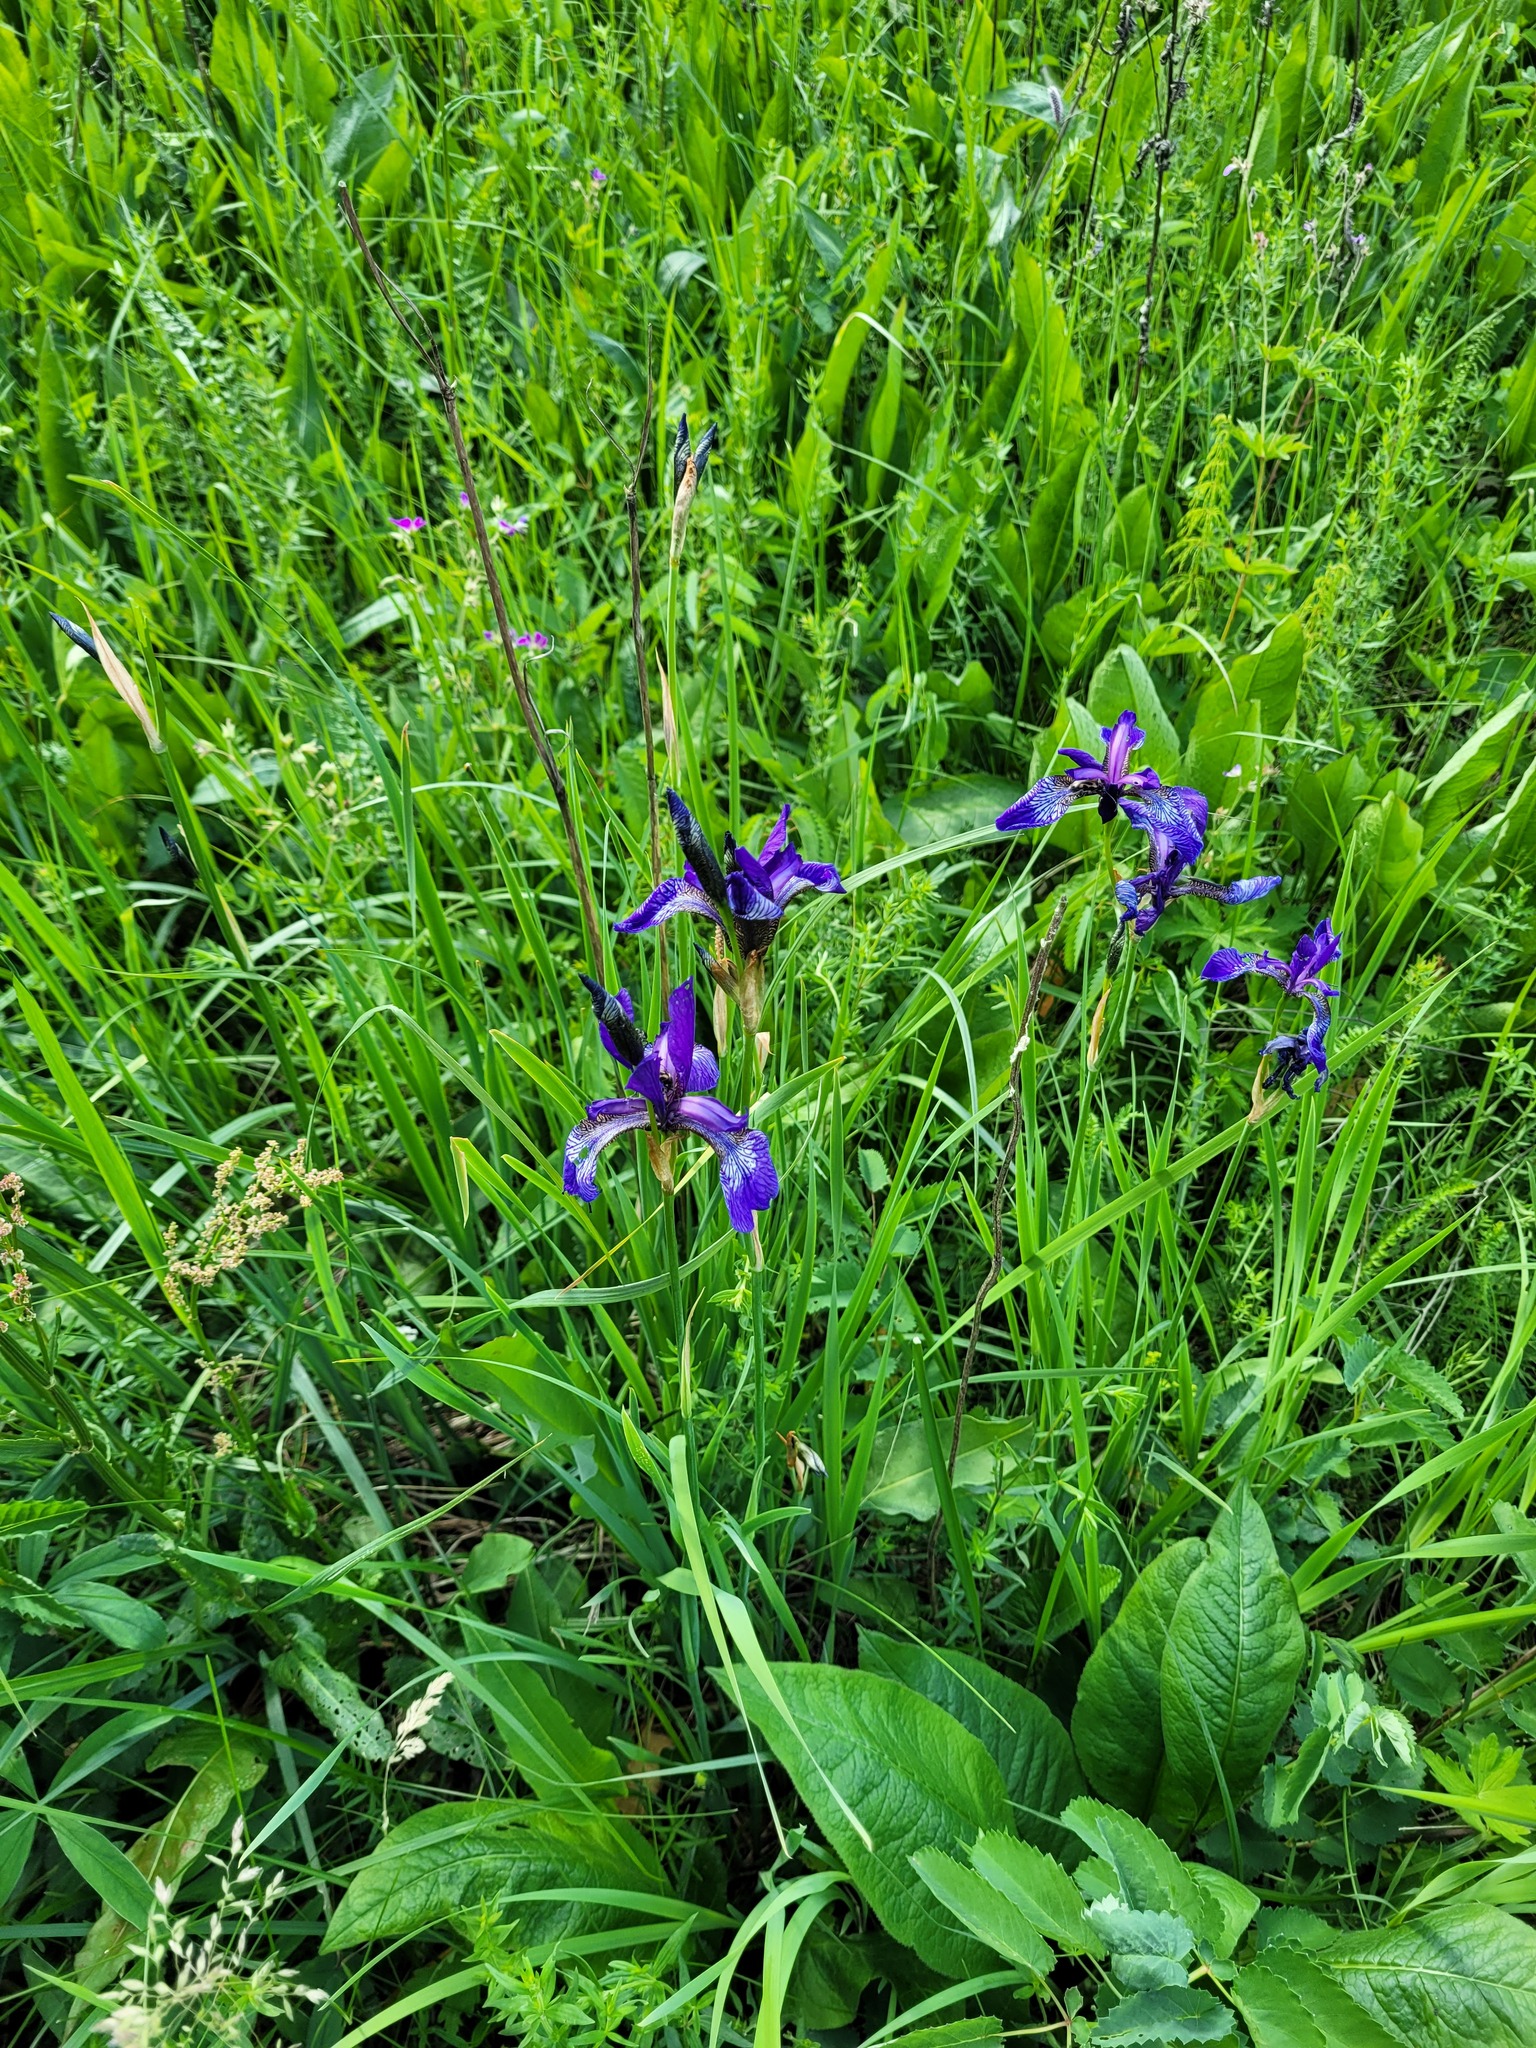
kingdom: Plantae
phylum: Tracheophyta
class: Liliopsida
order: Asparagales
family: Iridaceae
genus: Iris
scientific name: Iris sibirica
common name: Siberian iris
